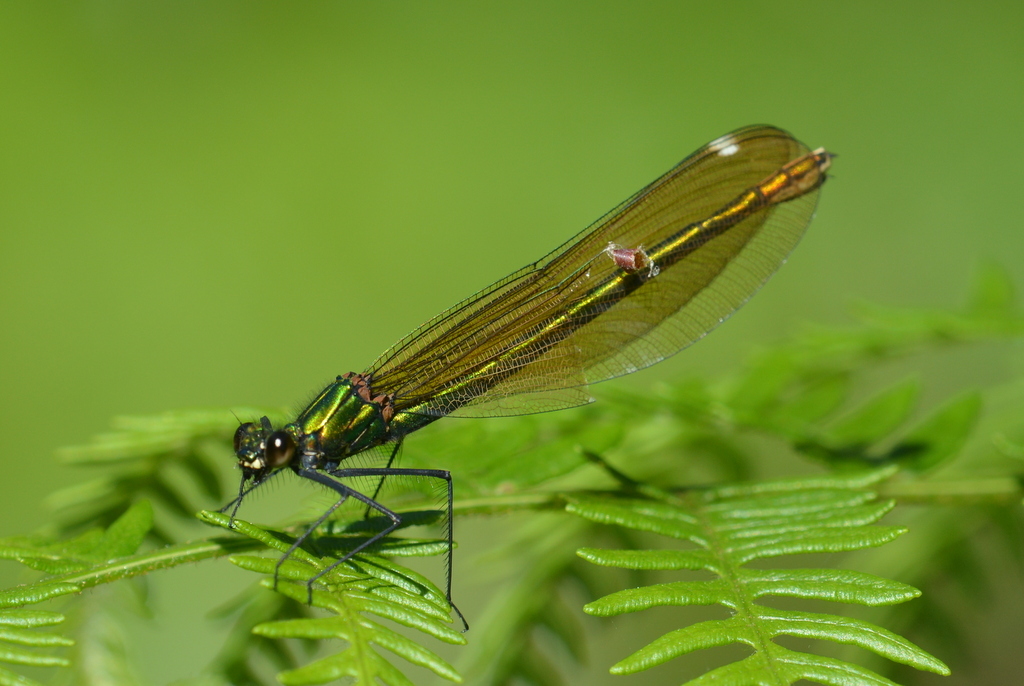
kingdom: Animalia
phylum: Arthropoda
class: Insecta
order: Odonata
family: Calopterygidae
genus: Calopteryx
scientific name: Calopteryx virgo
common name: Beautiful demoiselle
